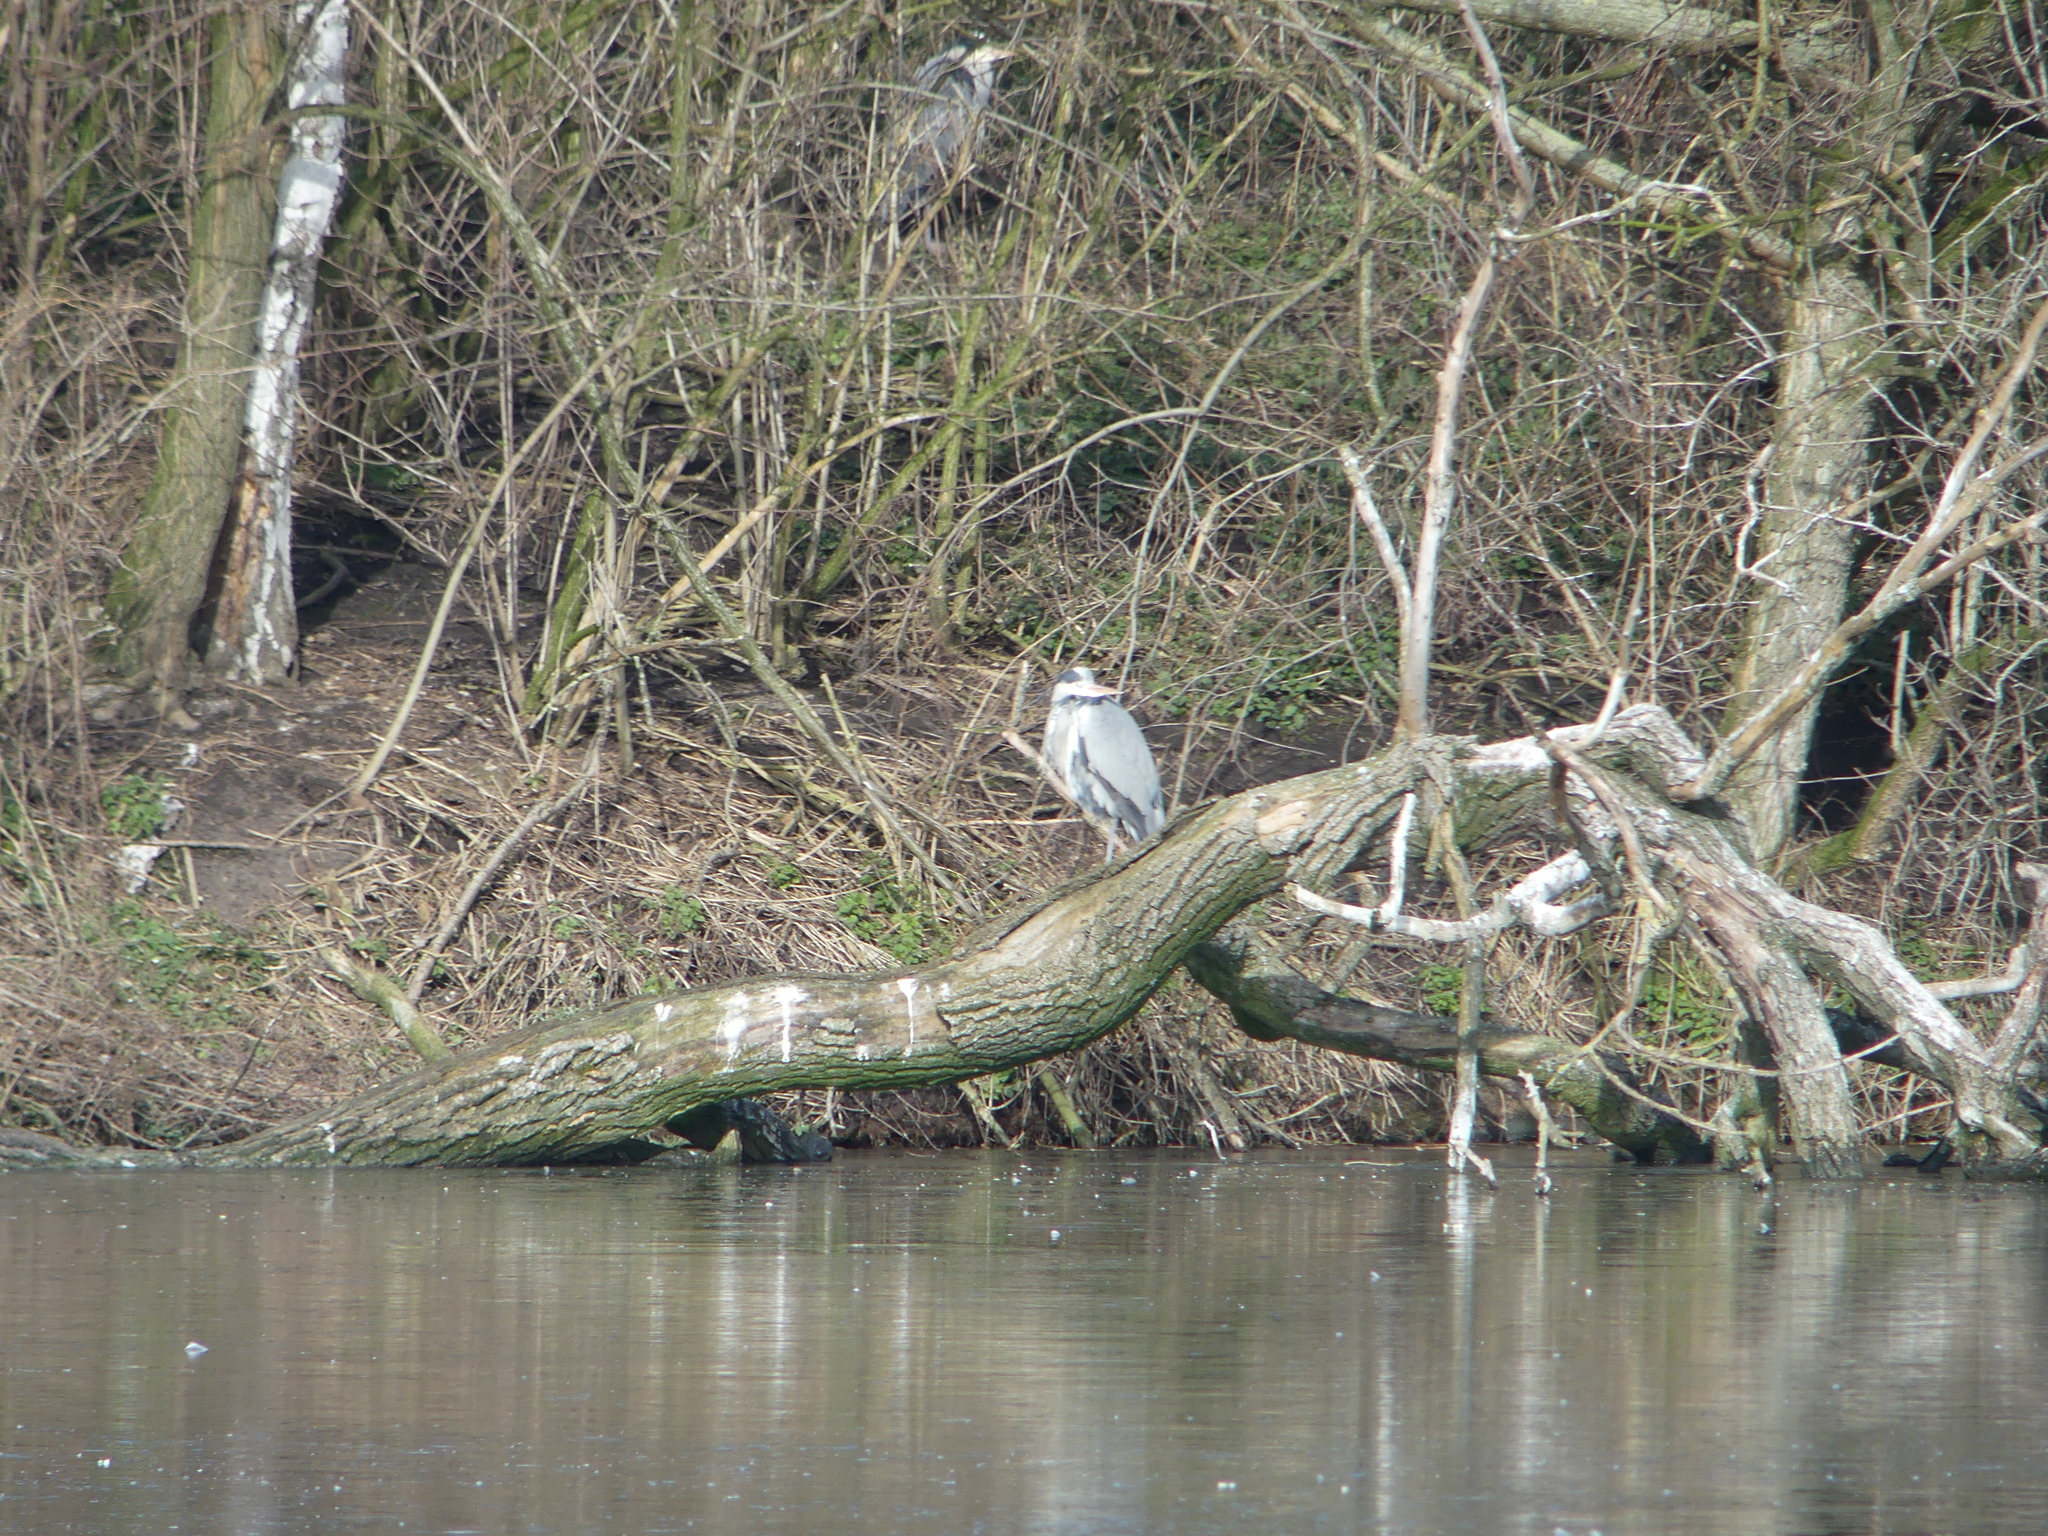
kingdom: Animalia
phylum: Chordata
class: Aves
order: Pelecaniformes
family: Ardeidae
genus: Ardea
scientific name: Ardea cinerea
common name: Grey heron
